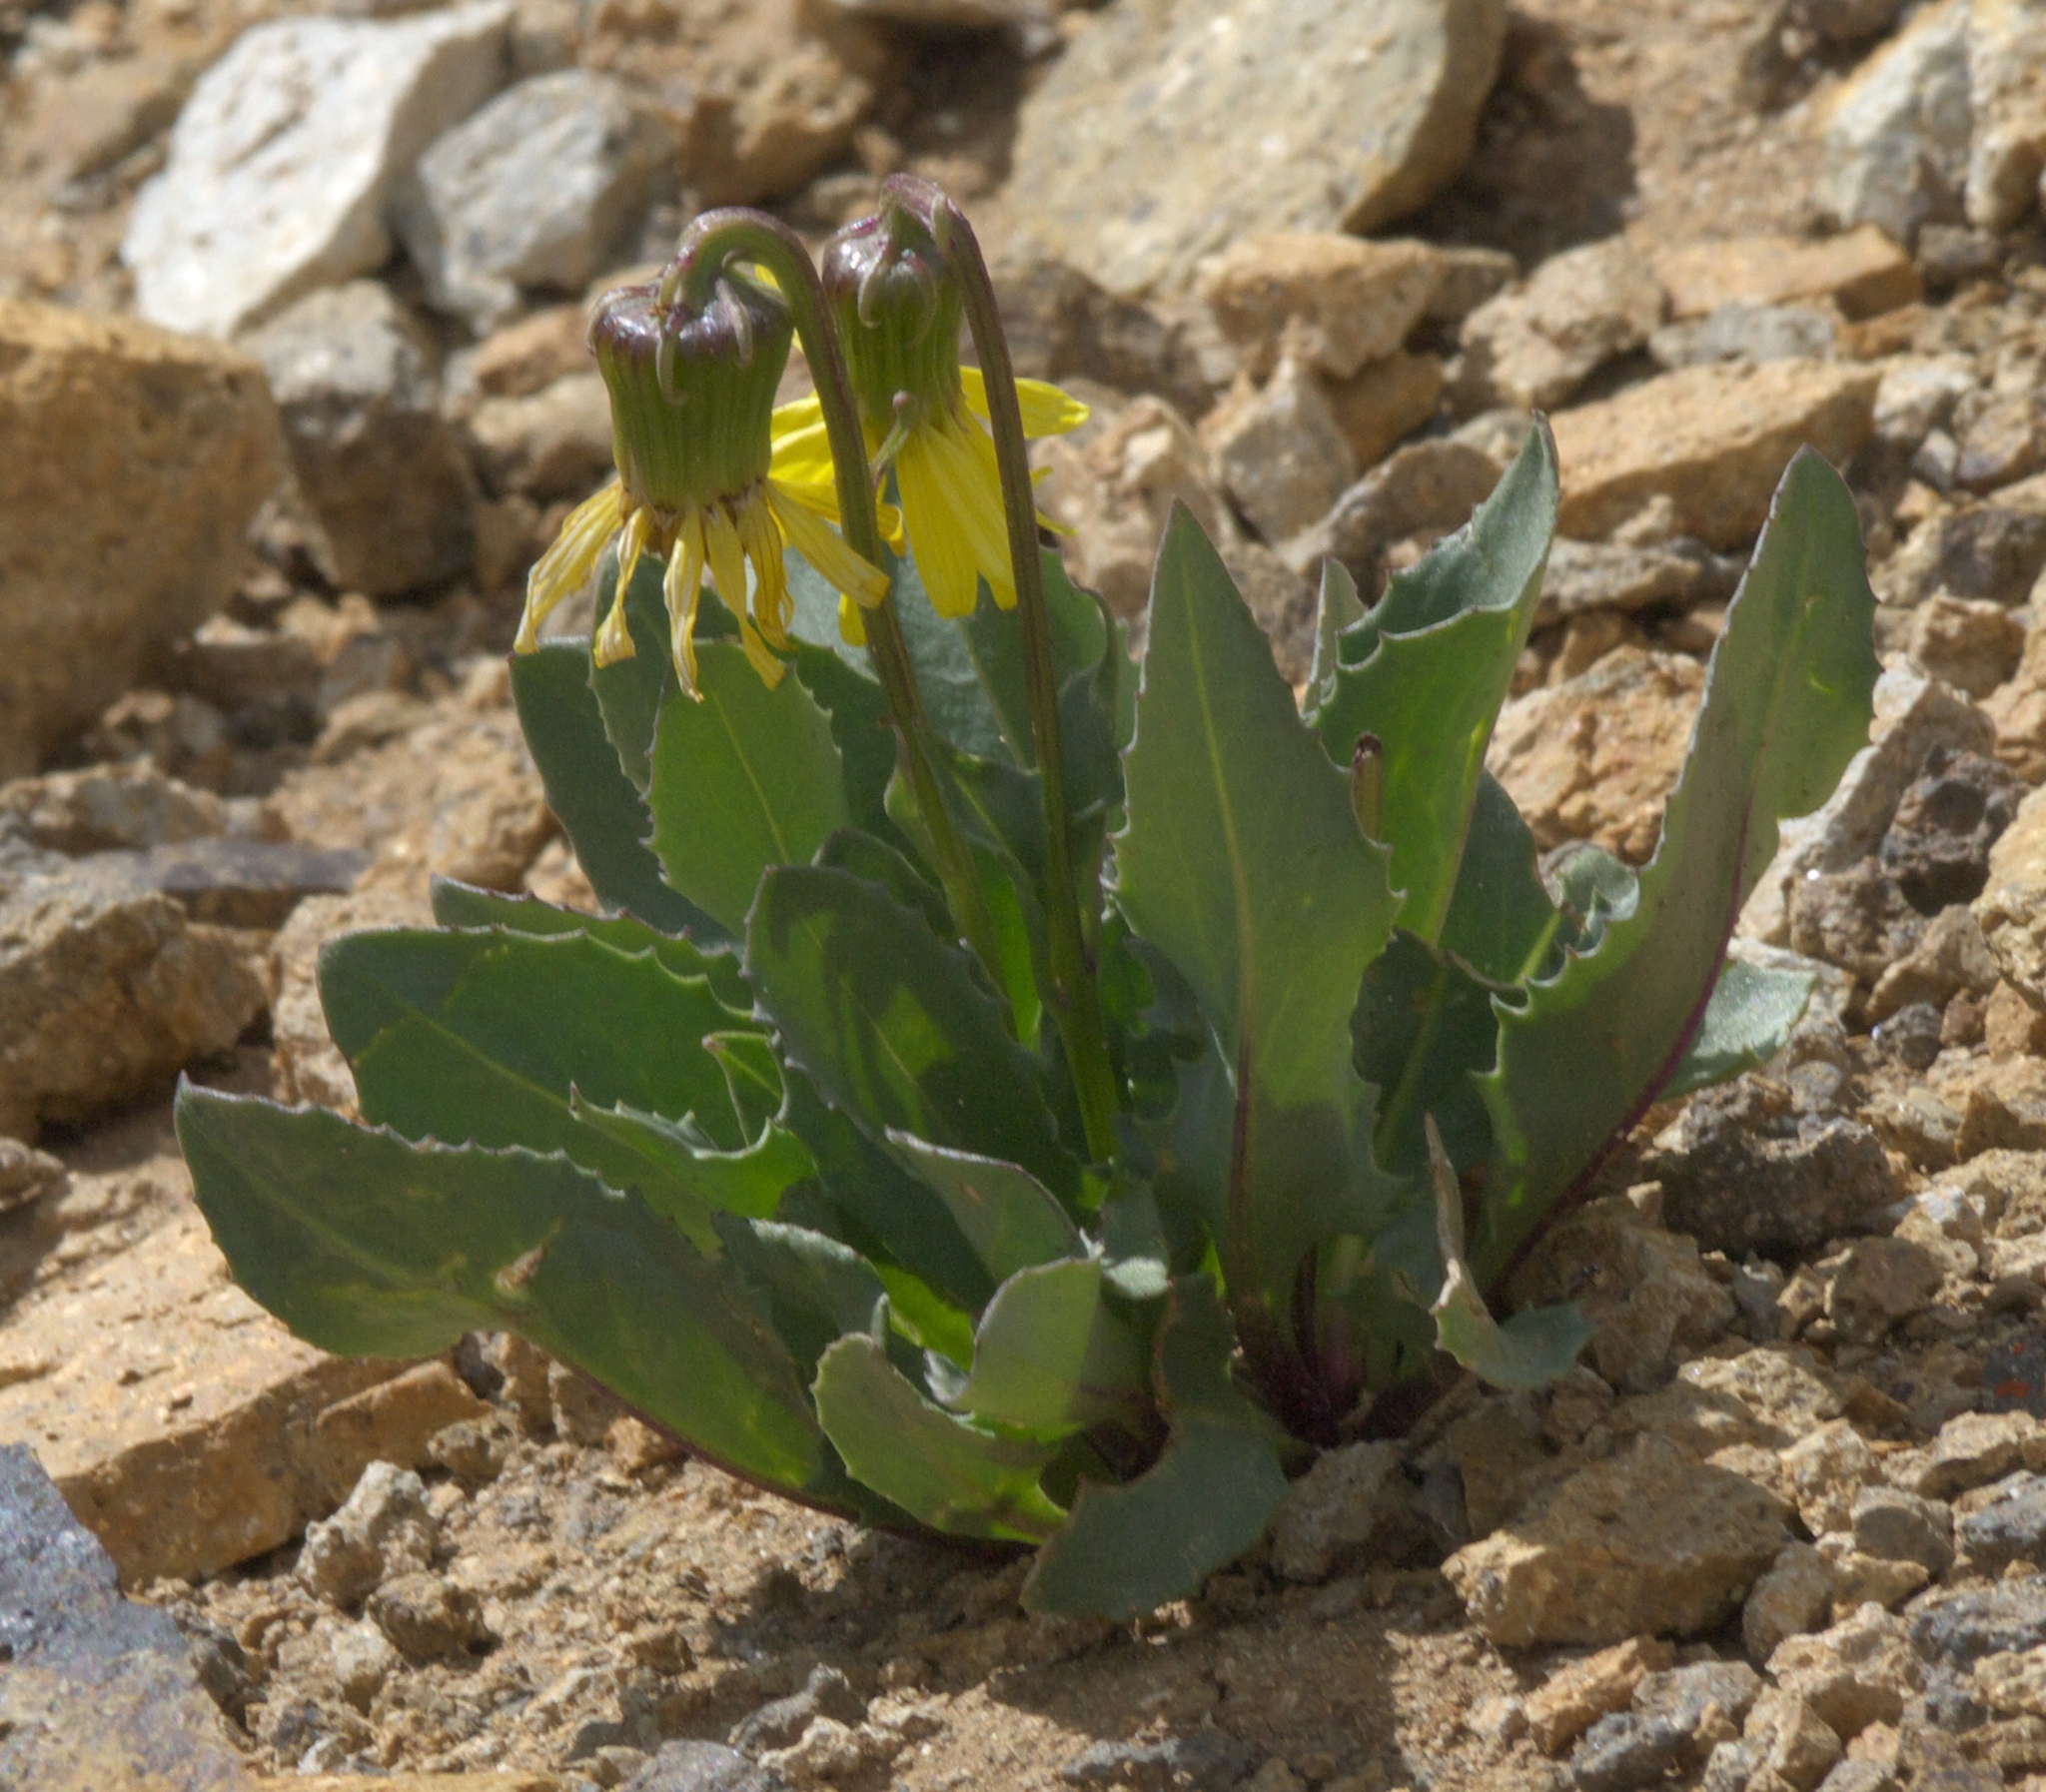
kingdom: Plantae
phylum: Tracheophyta
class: Magnoliopsida
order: Asterales
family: Asteraceae
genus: Senecio
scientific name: Senecio amplectens
